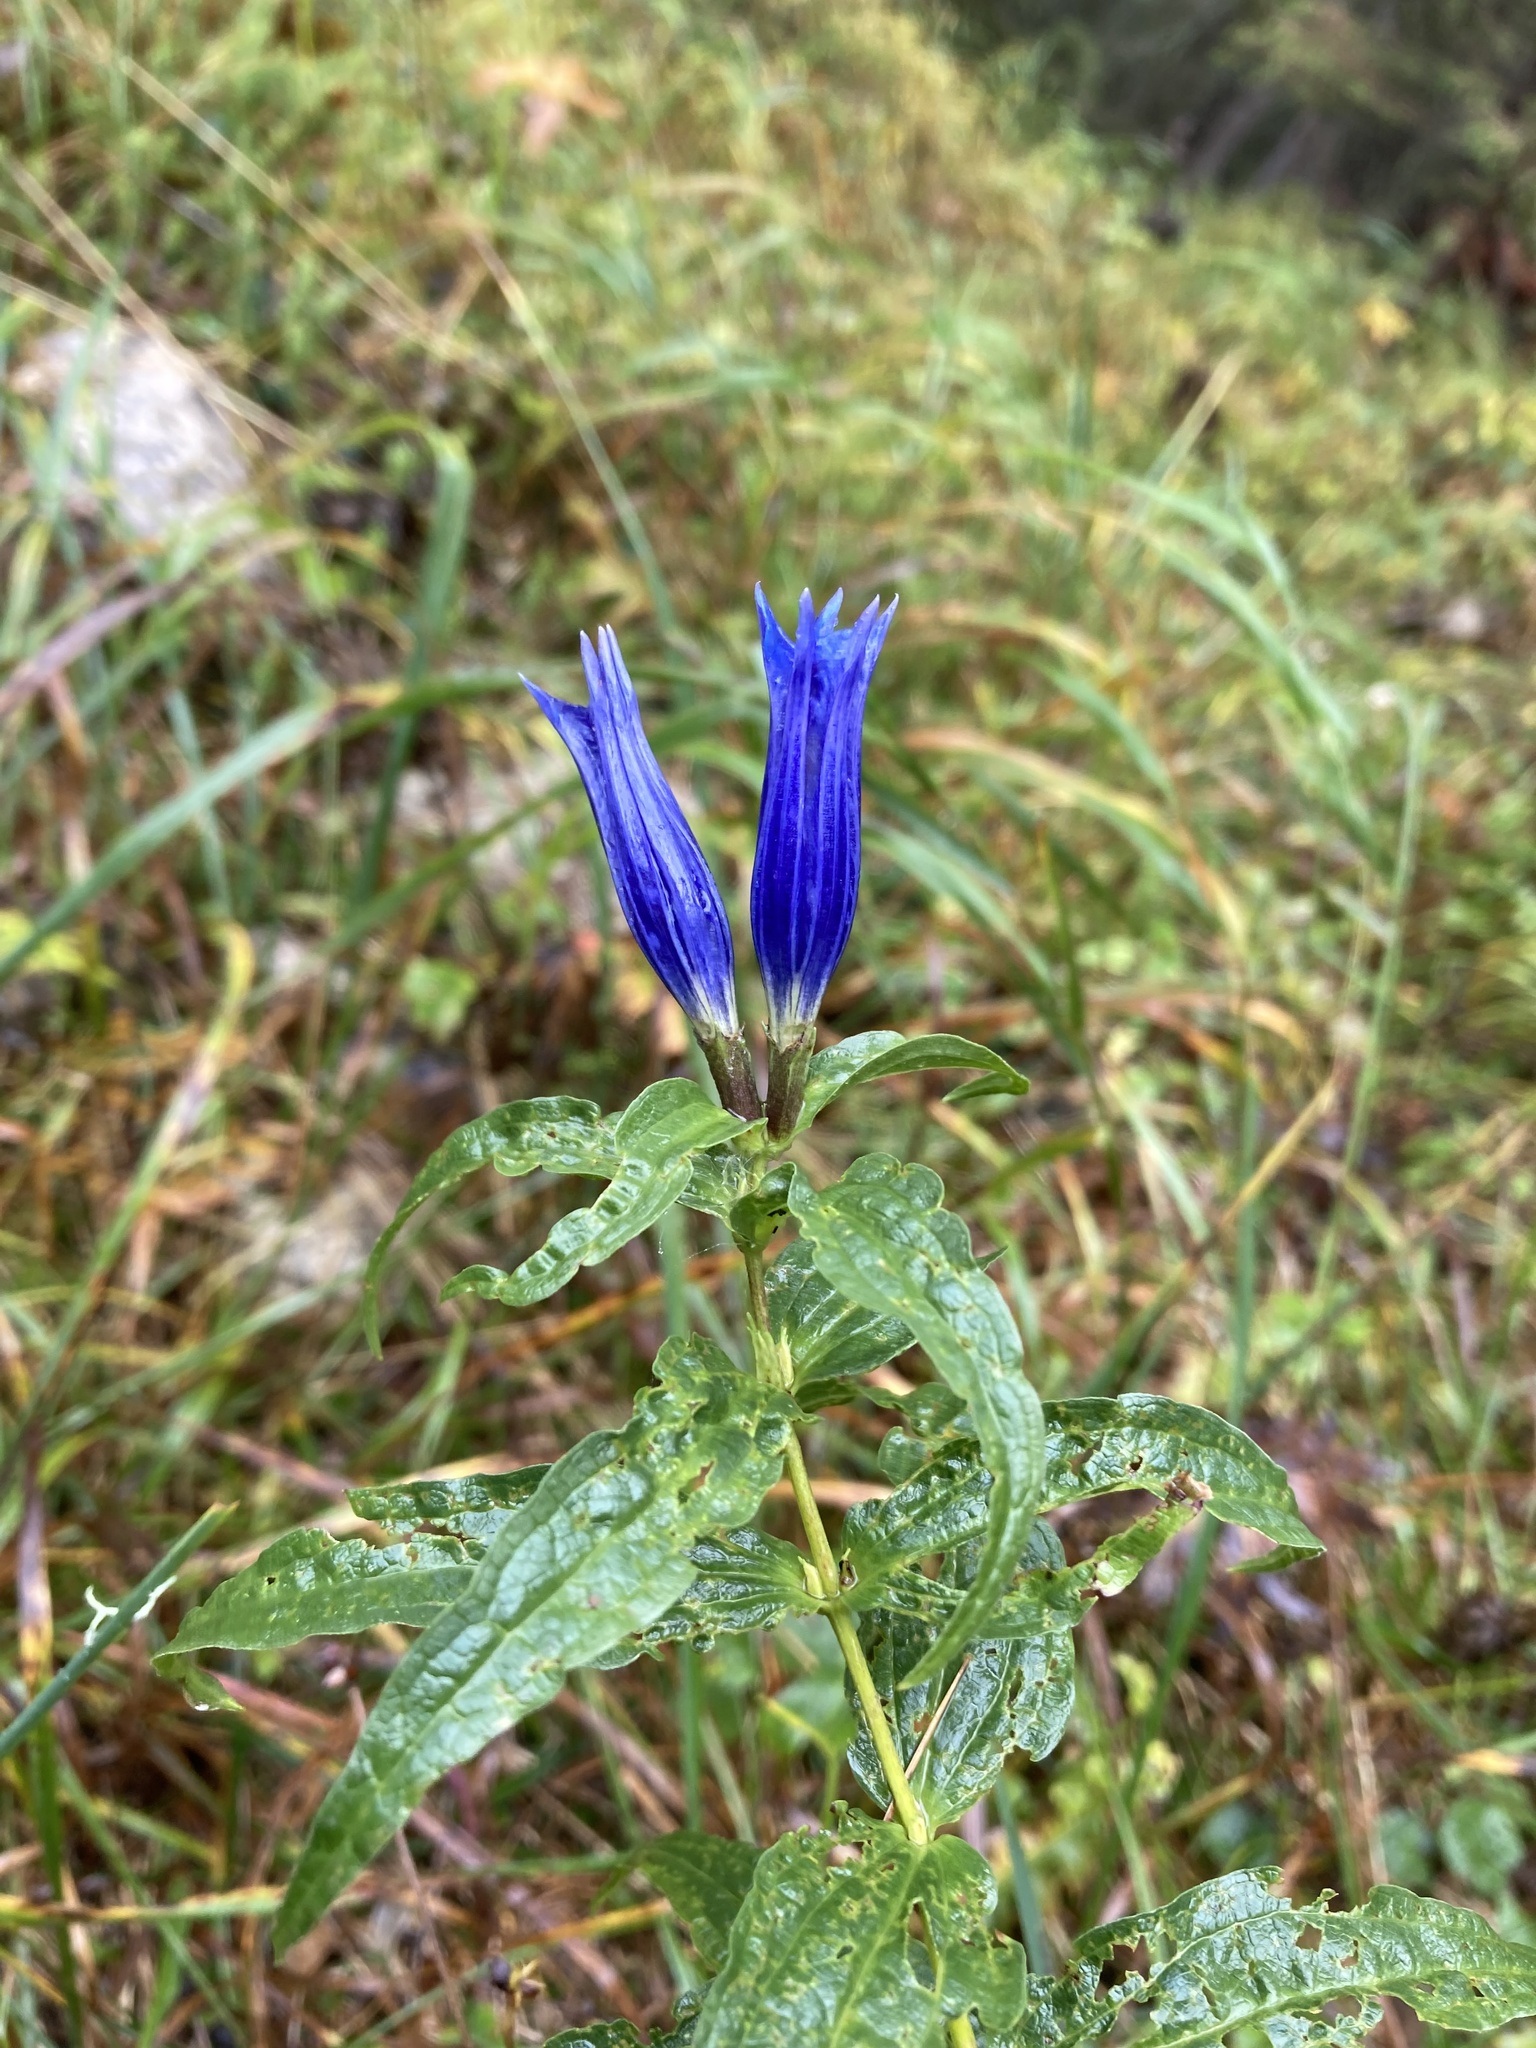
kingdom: Plantae
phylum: Tracheophyta
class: Magnoliopsida
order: Gentianales
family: Gentianaceae
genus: Gentiana
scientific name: Gentiana asclepiadea
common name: Willow gentian
